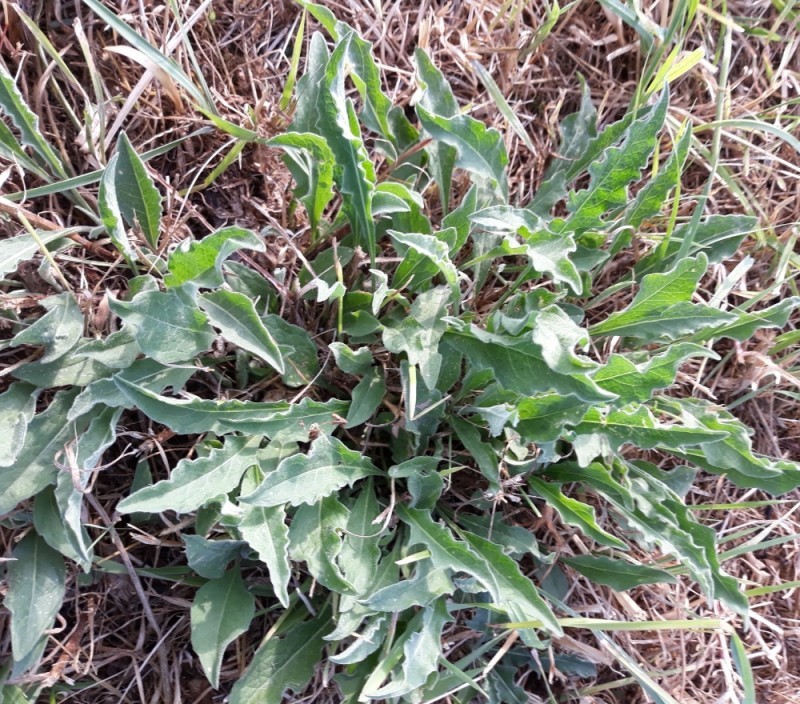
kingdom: Plantae
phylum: Tracheophyta
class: Magnoliopsida
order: Asterales
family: Asteraceae
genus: Centaurea
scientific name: Centaurea jacea
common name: Brown knapweed
